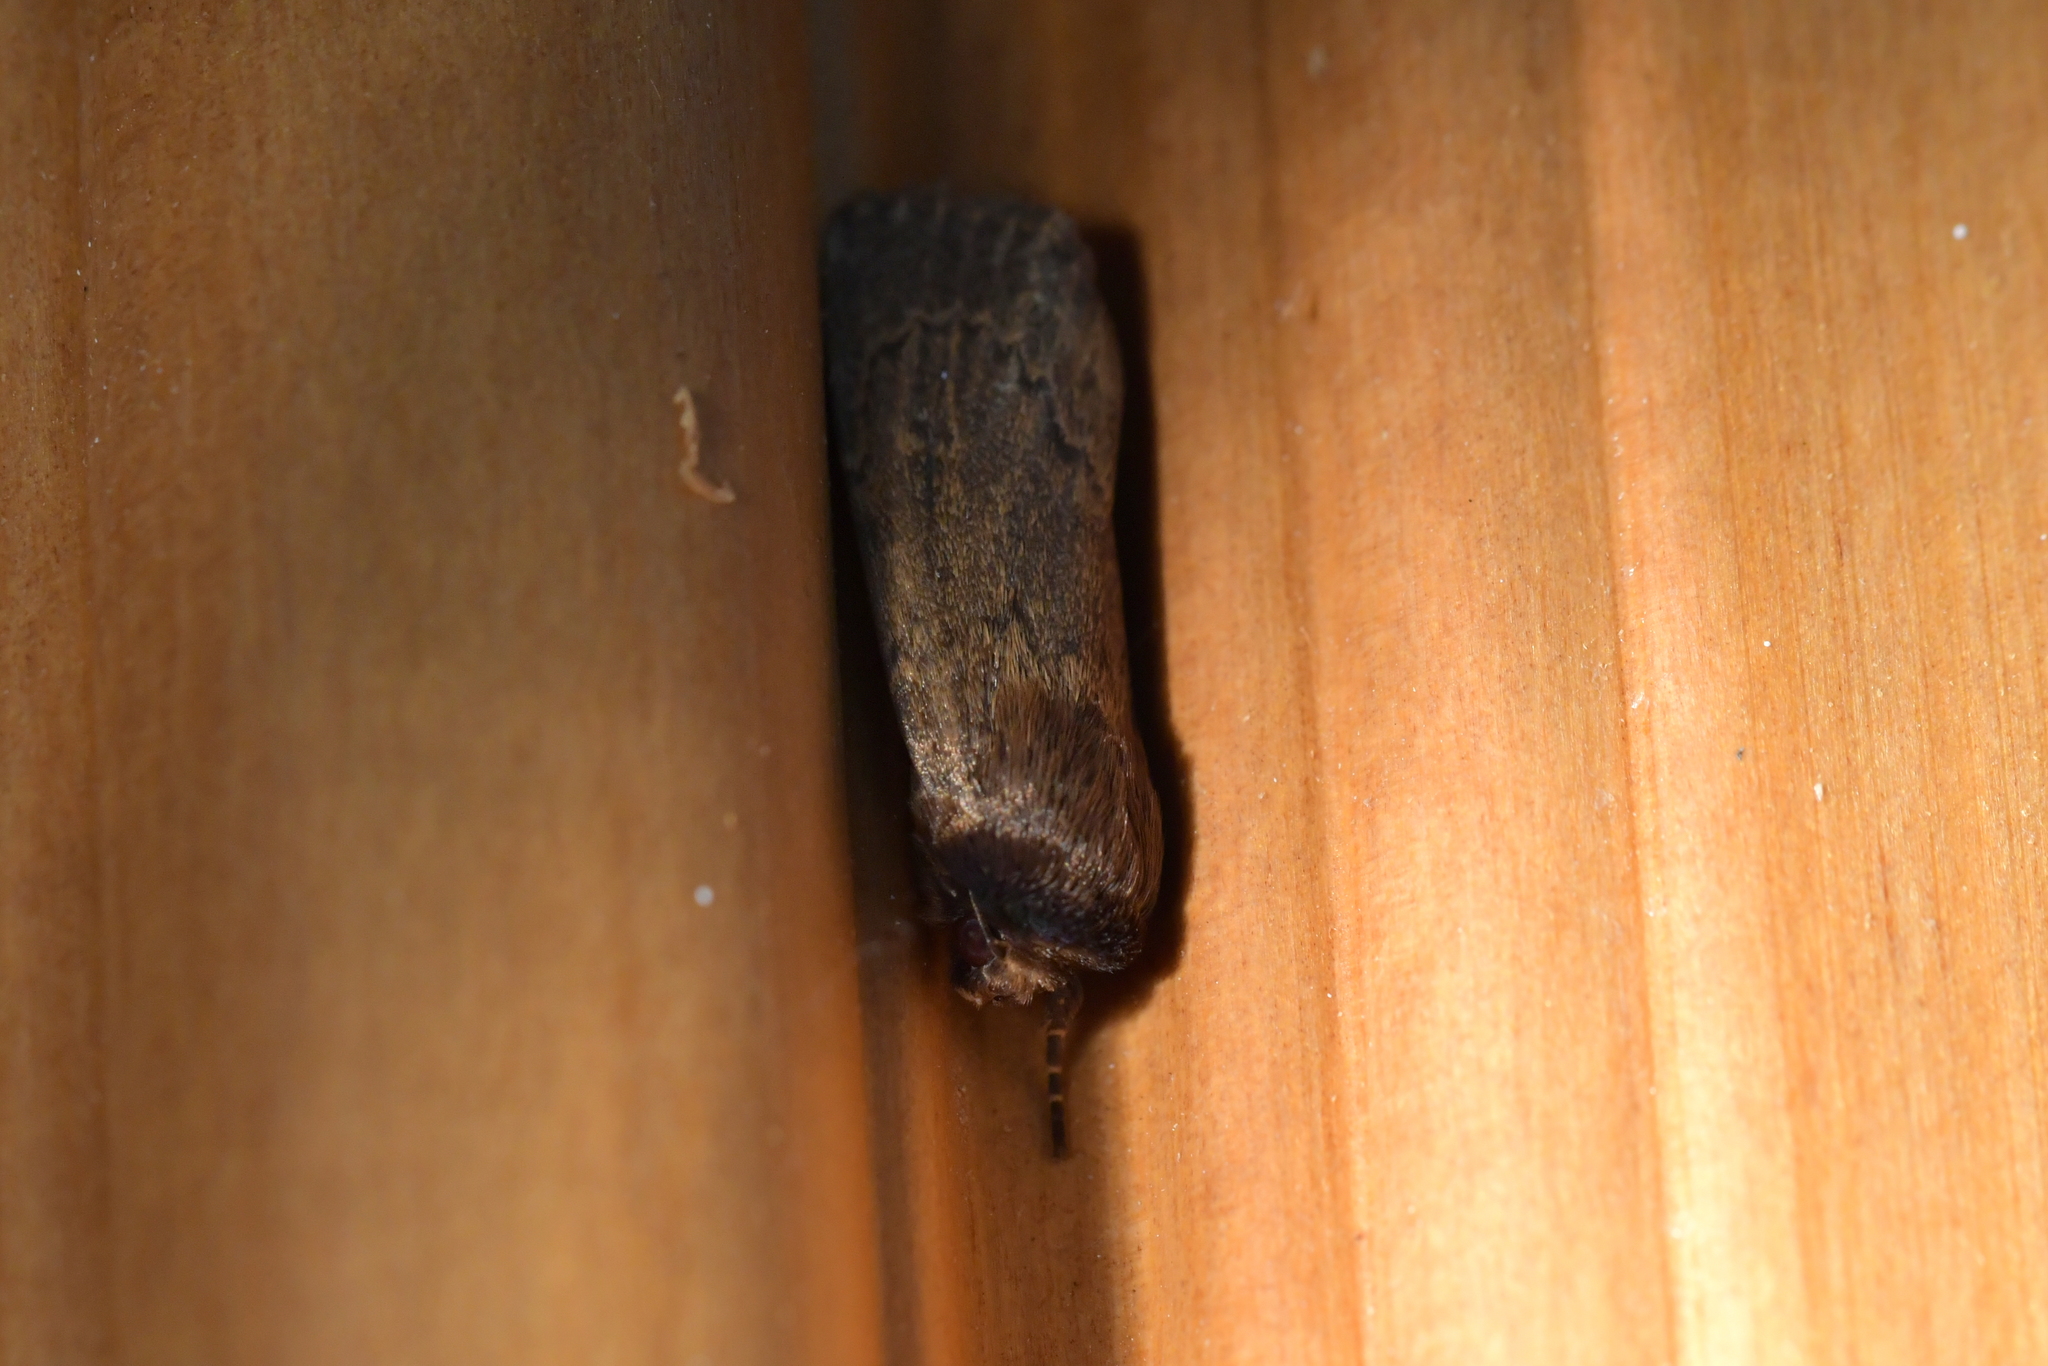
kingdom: Animalia
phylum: Arthropoda
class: Insecta
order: Lepidoptera
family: Noctuidae
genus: Bityla
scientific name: Bityla defigurata
